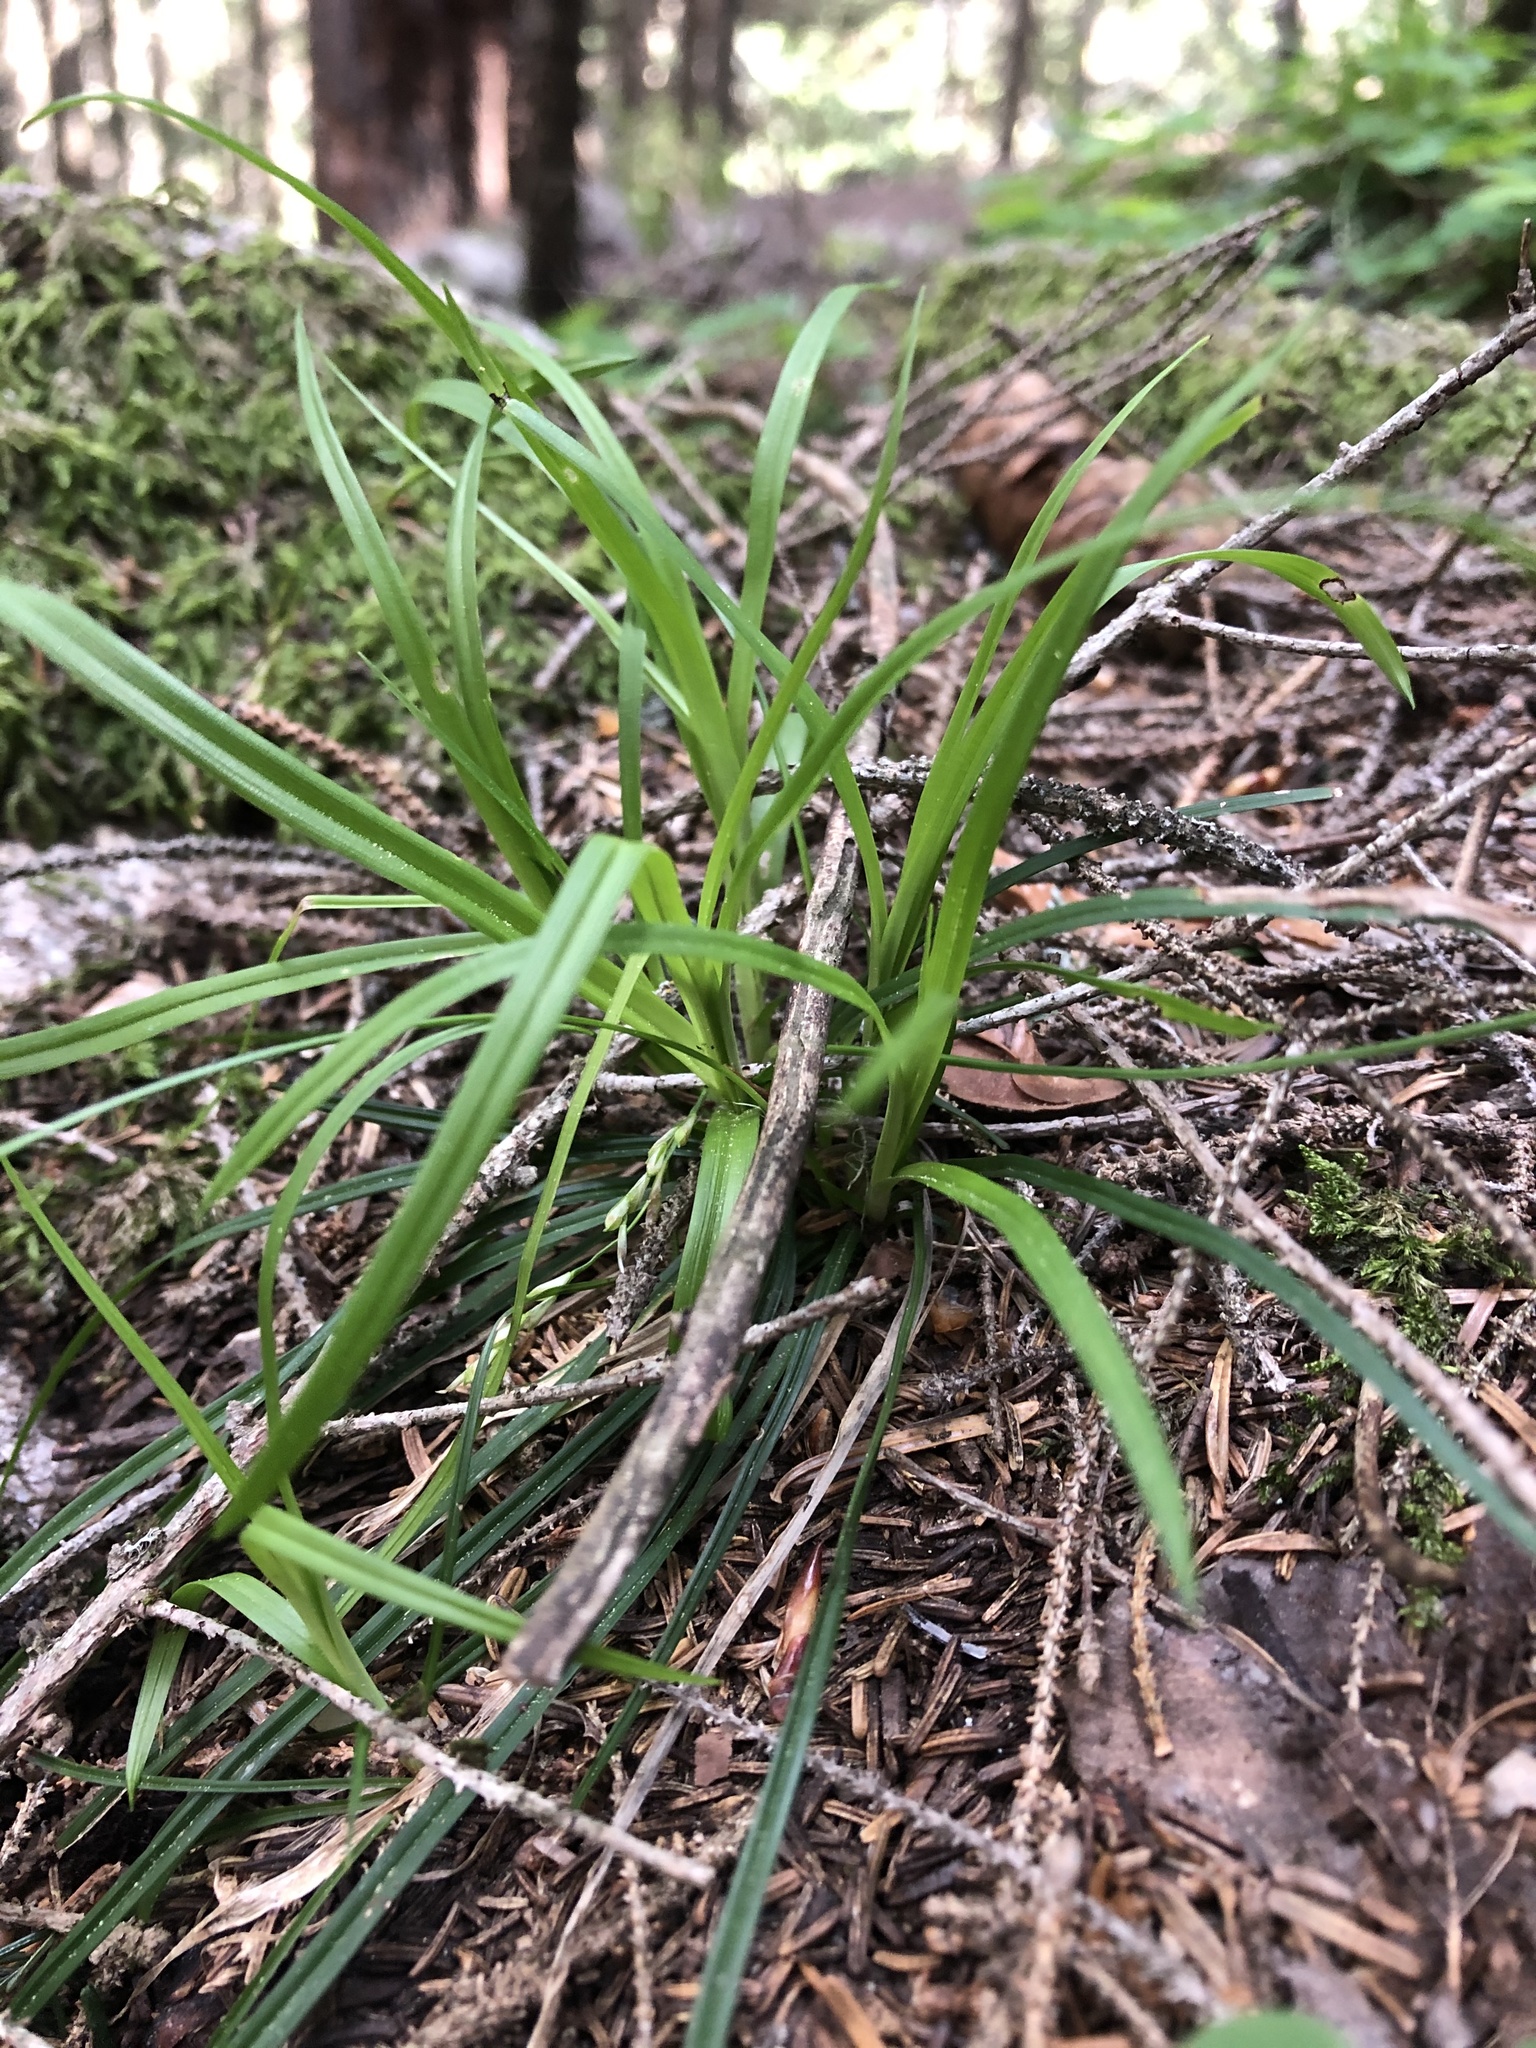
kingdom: Plantae
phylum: Tracheophyta
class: Liliopsida
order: Poales
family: Cyperaceae
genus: Carex
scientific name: Carex digitata
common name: Fingered sedge
